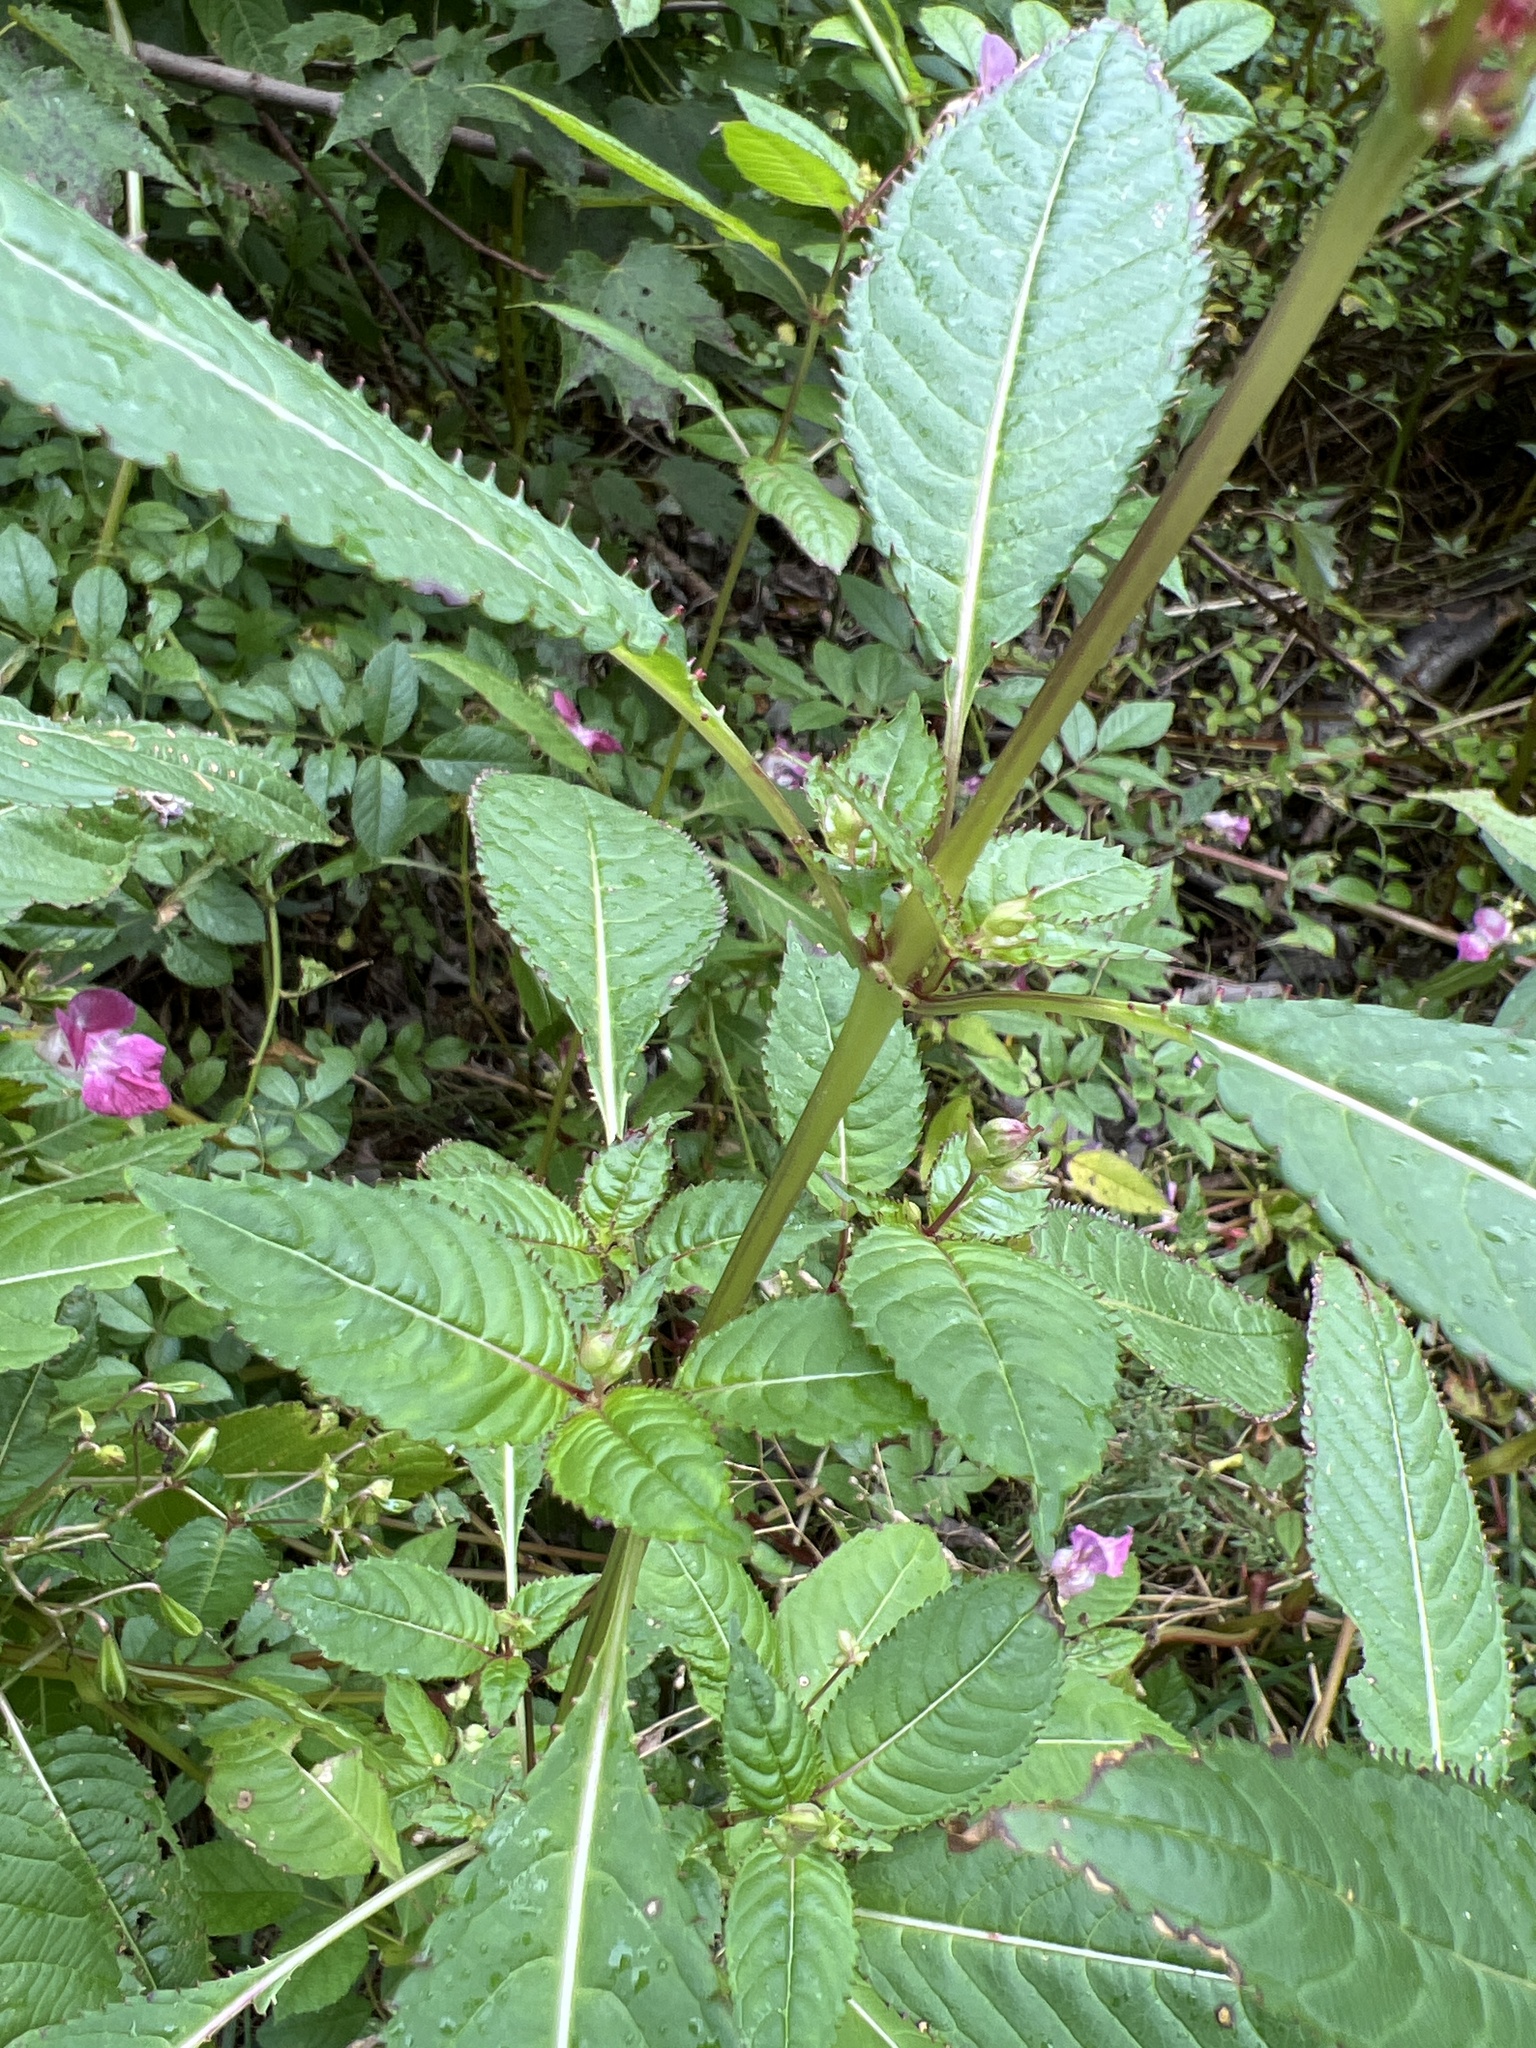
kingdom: Plantae
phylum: Tracheophyta
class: Magnoliopsida
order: Ericales
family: Balsaminaceae
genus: Impatiens
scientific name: Impatiens glandulifera
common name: Himalayan balsam
